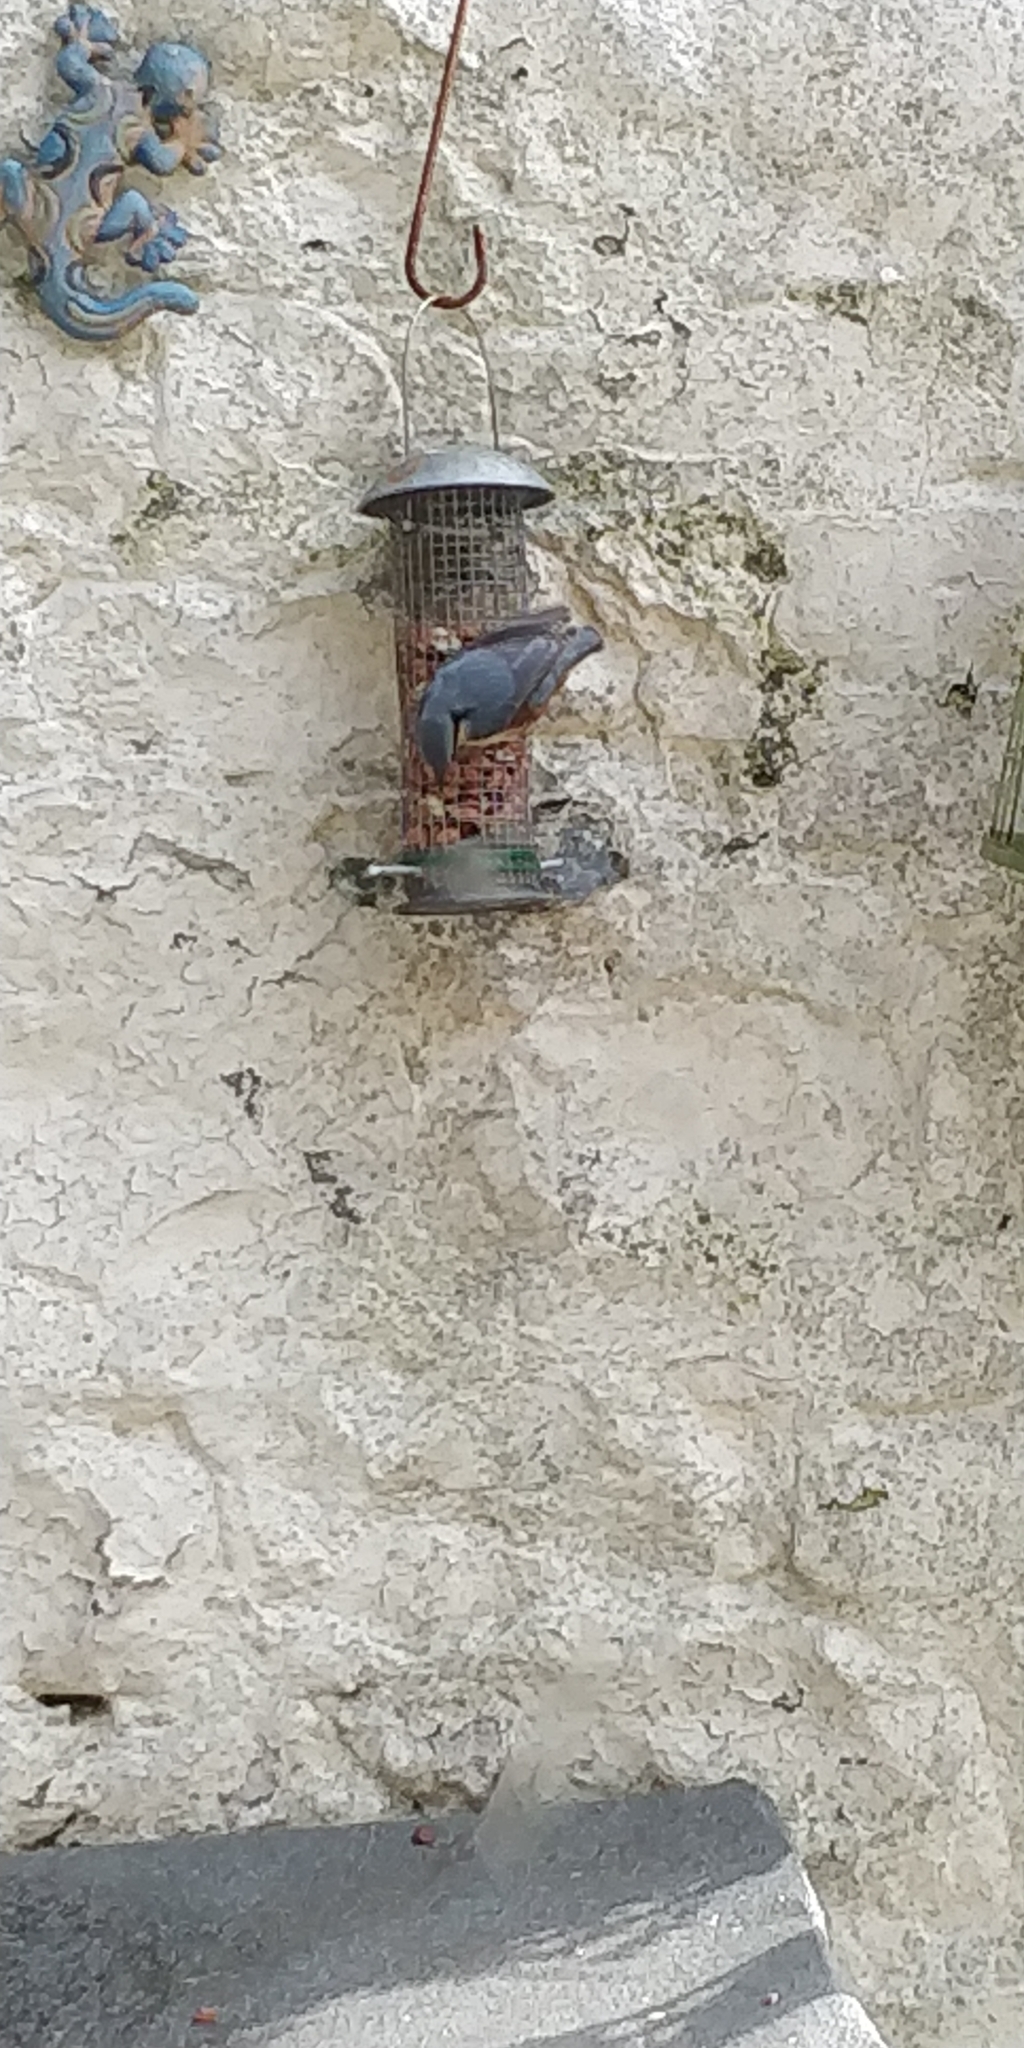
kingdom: Animalia
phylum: Chordata
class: Aves
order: Passeriformes
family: Sittidae
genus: Sitta
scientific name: Sitta europaea
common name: Eurasian nuthatch
